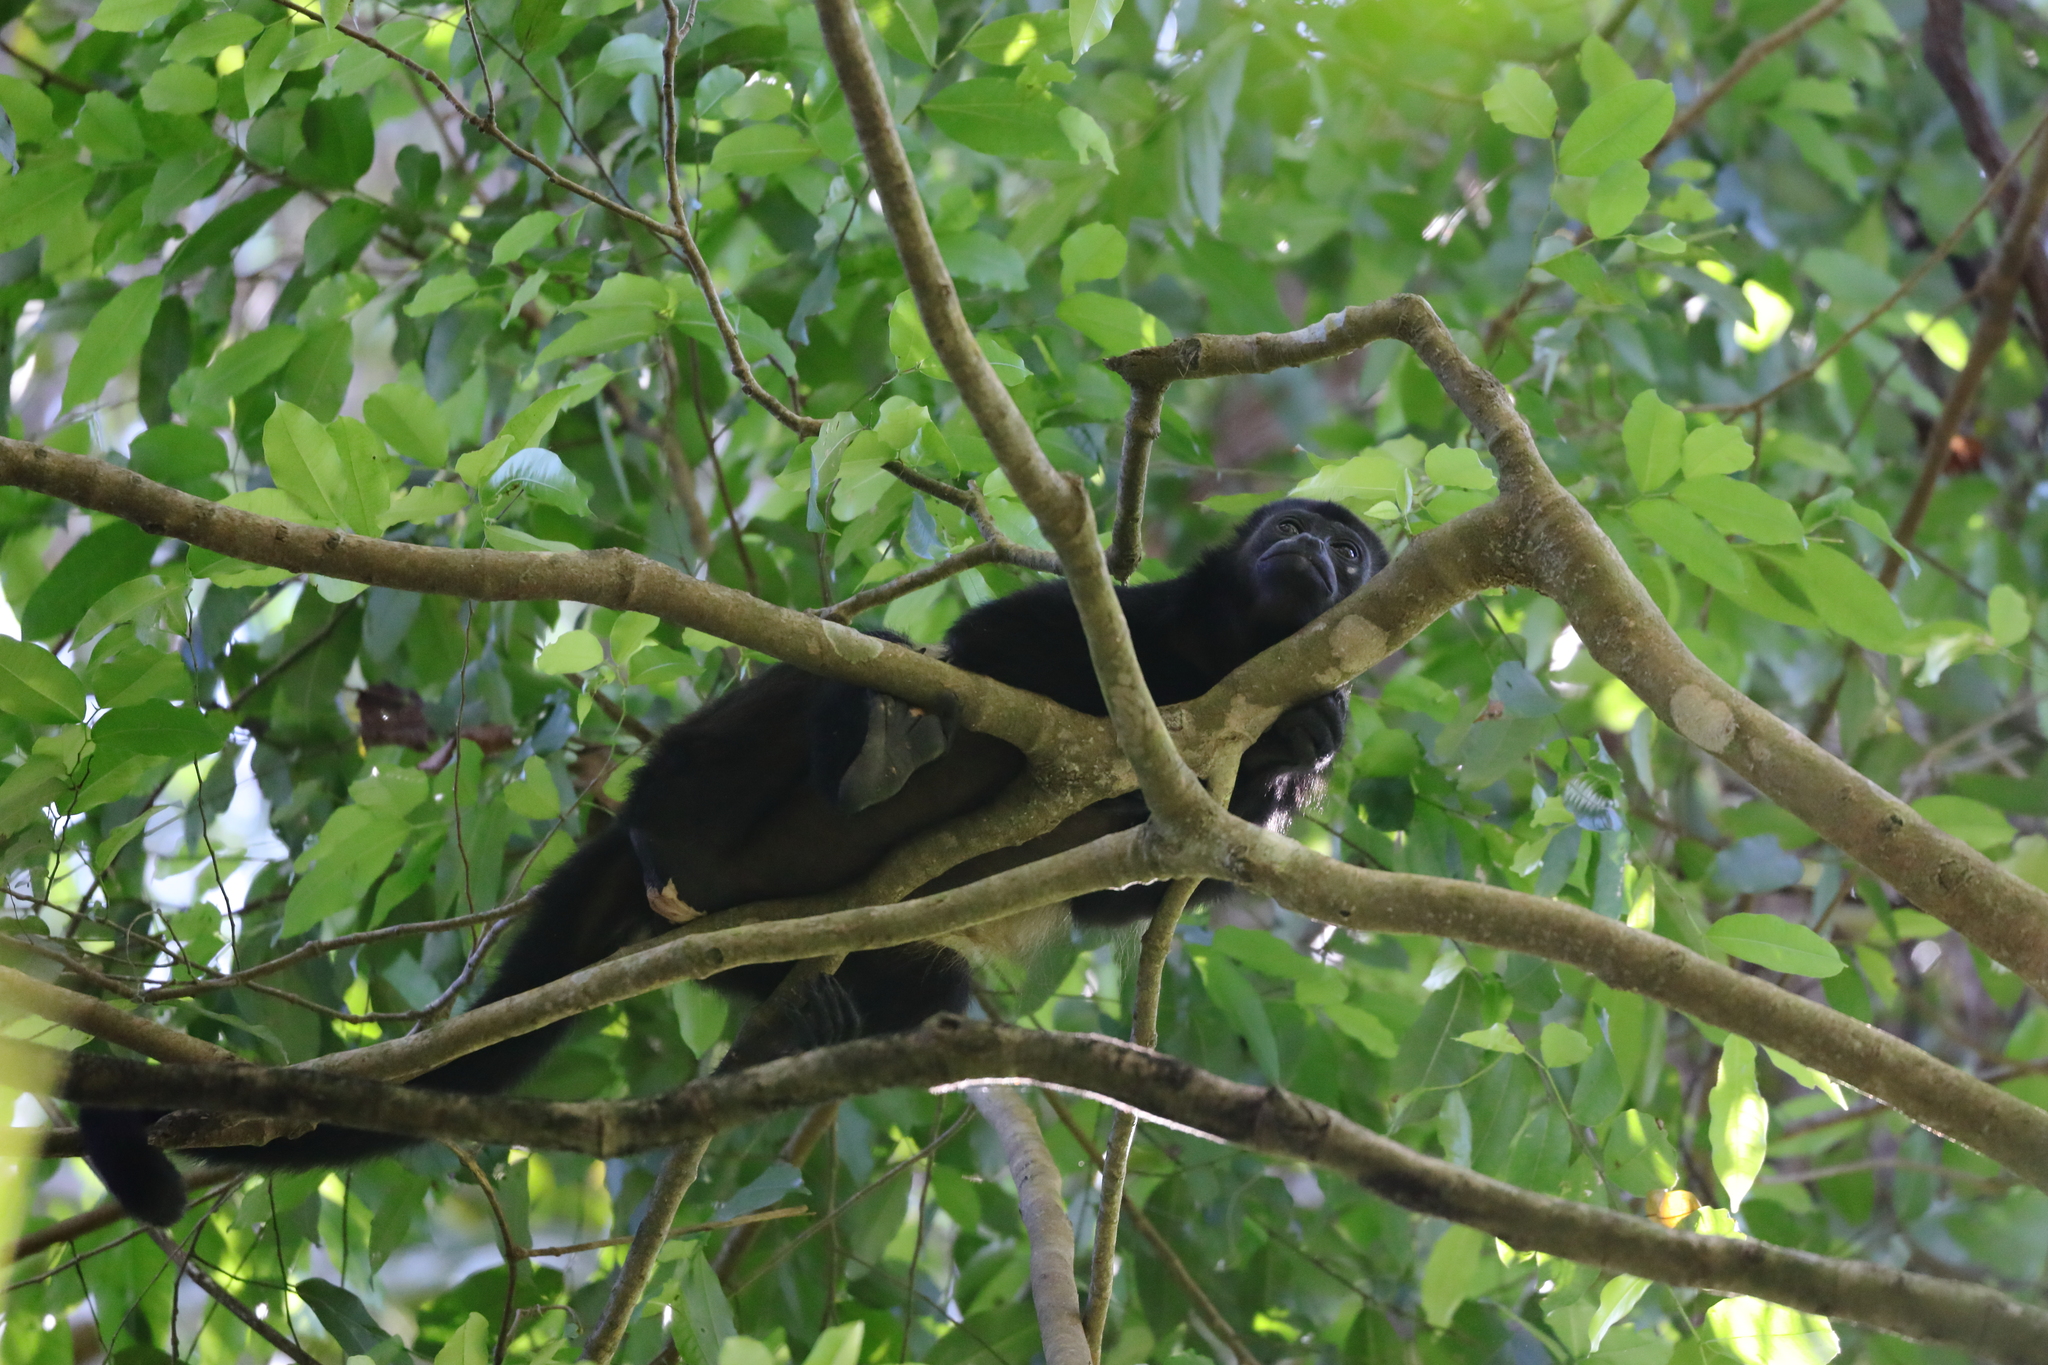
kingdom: Animalia
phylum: Chordata
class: Mammalia
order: Primates
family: Atelidae
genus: Alouatta
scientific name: Alouatta palliata
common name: Mantled howler
